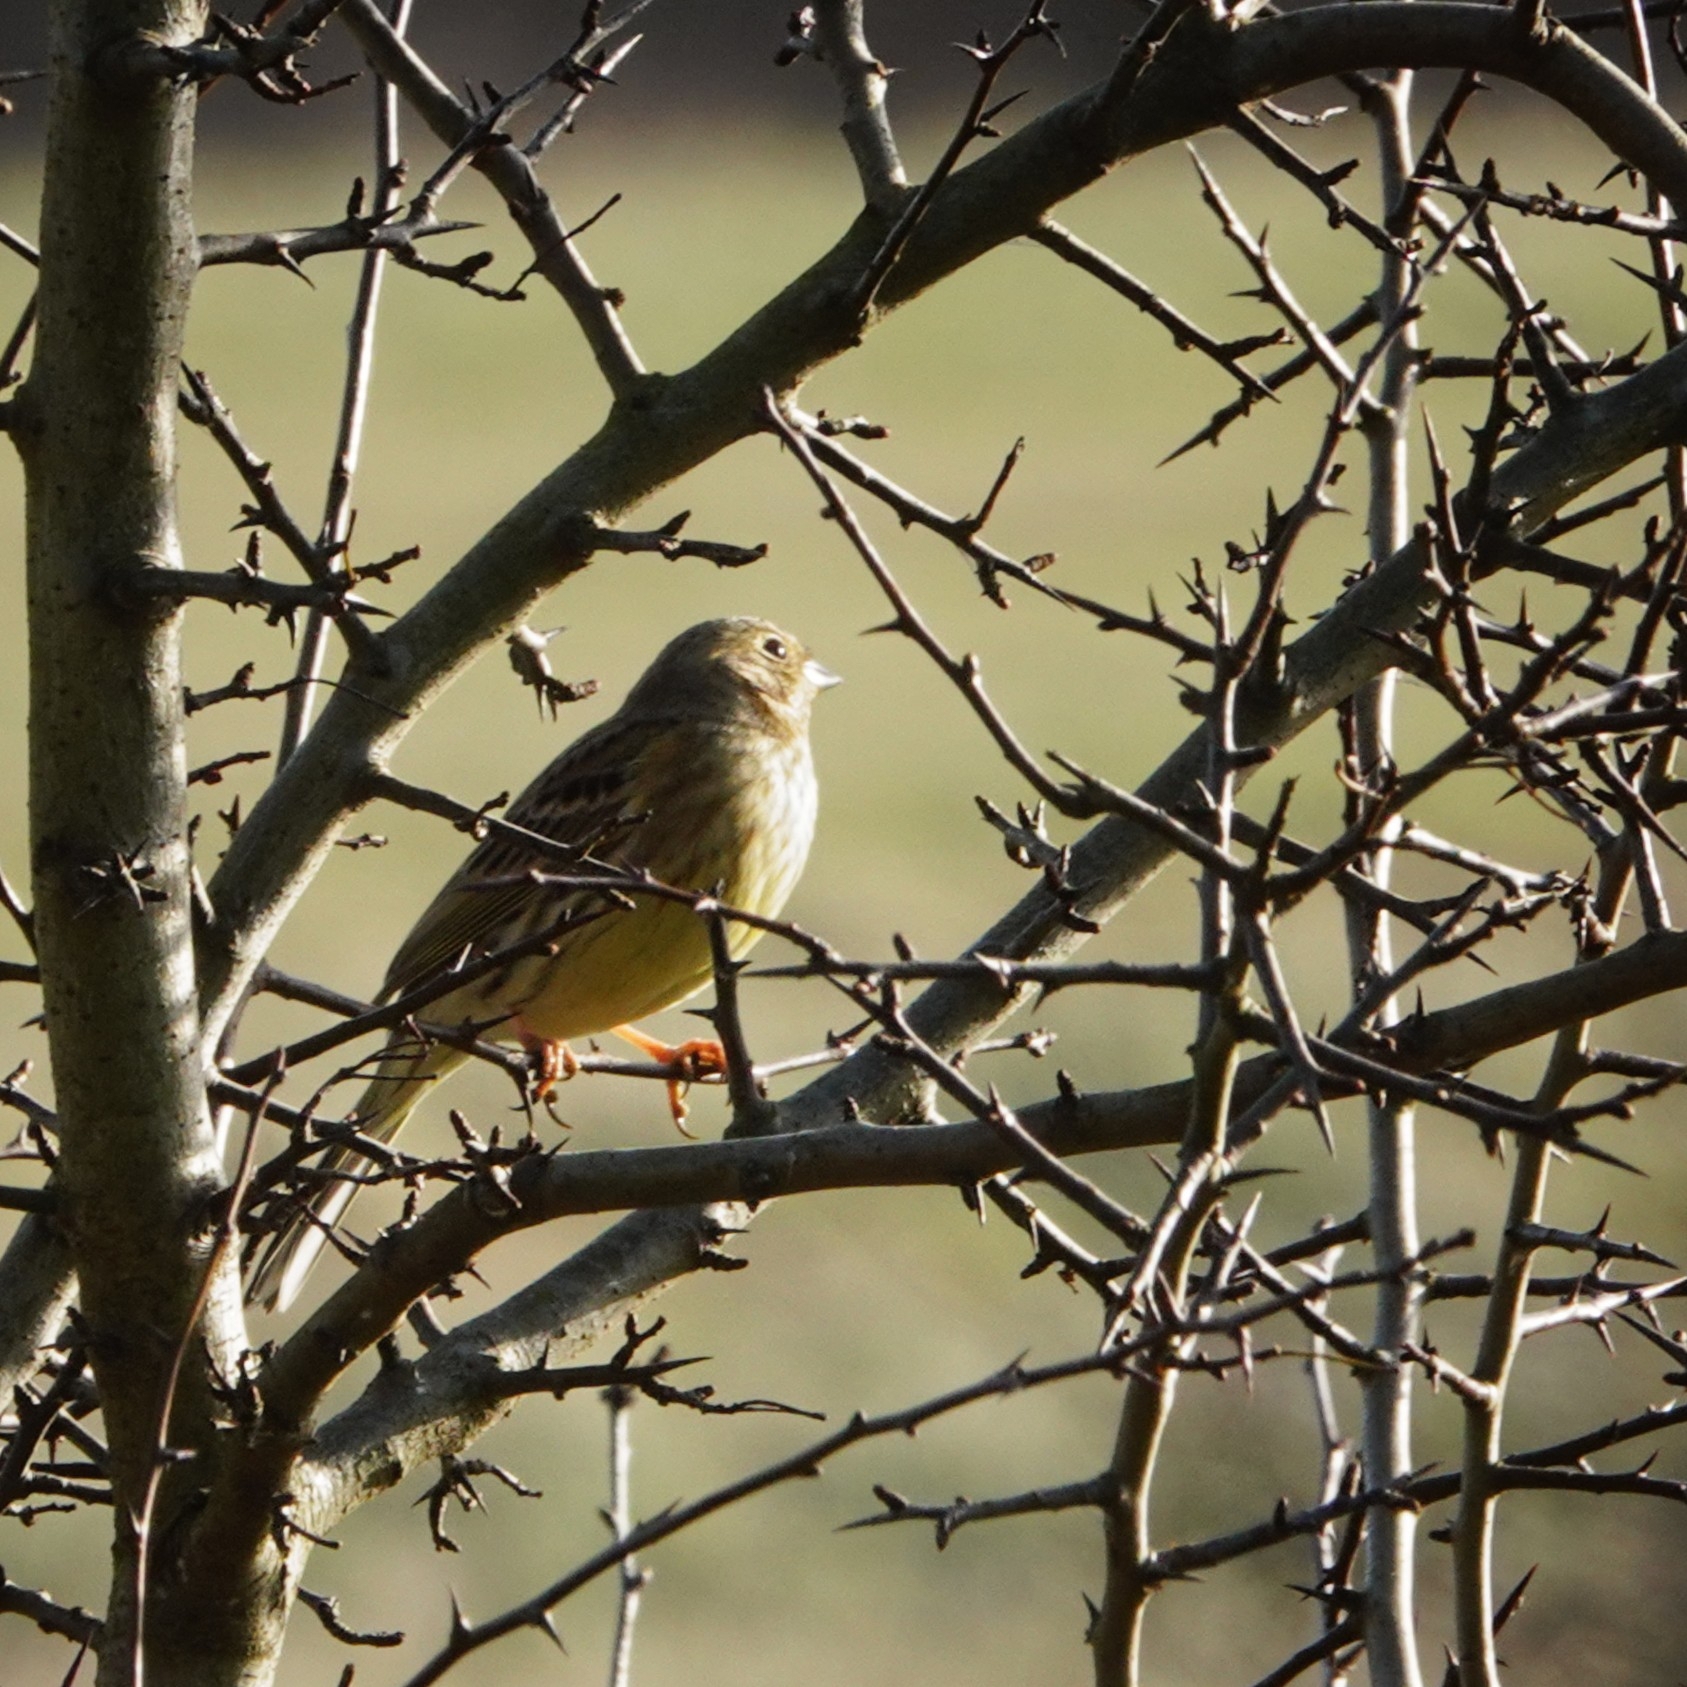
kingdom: Animalia
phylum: Chordata
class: Aves
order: Passeriformes
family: Emberizidae
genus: Emberiza
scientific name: Emberiza citrinella
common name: Yellowhammer
